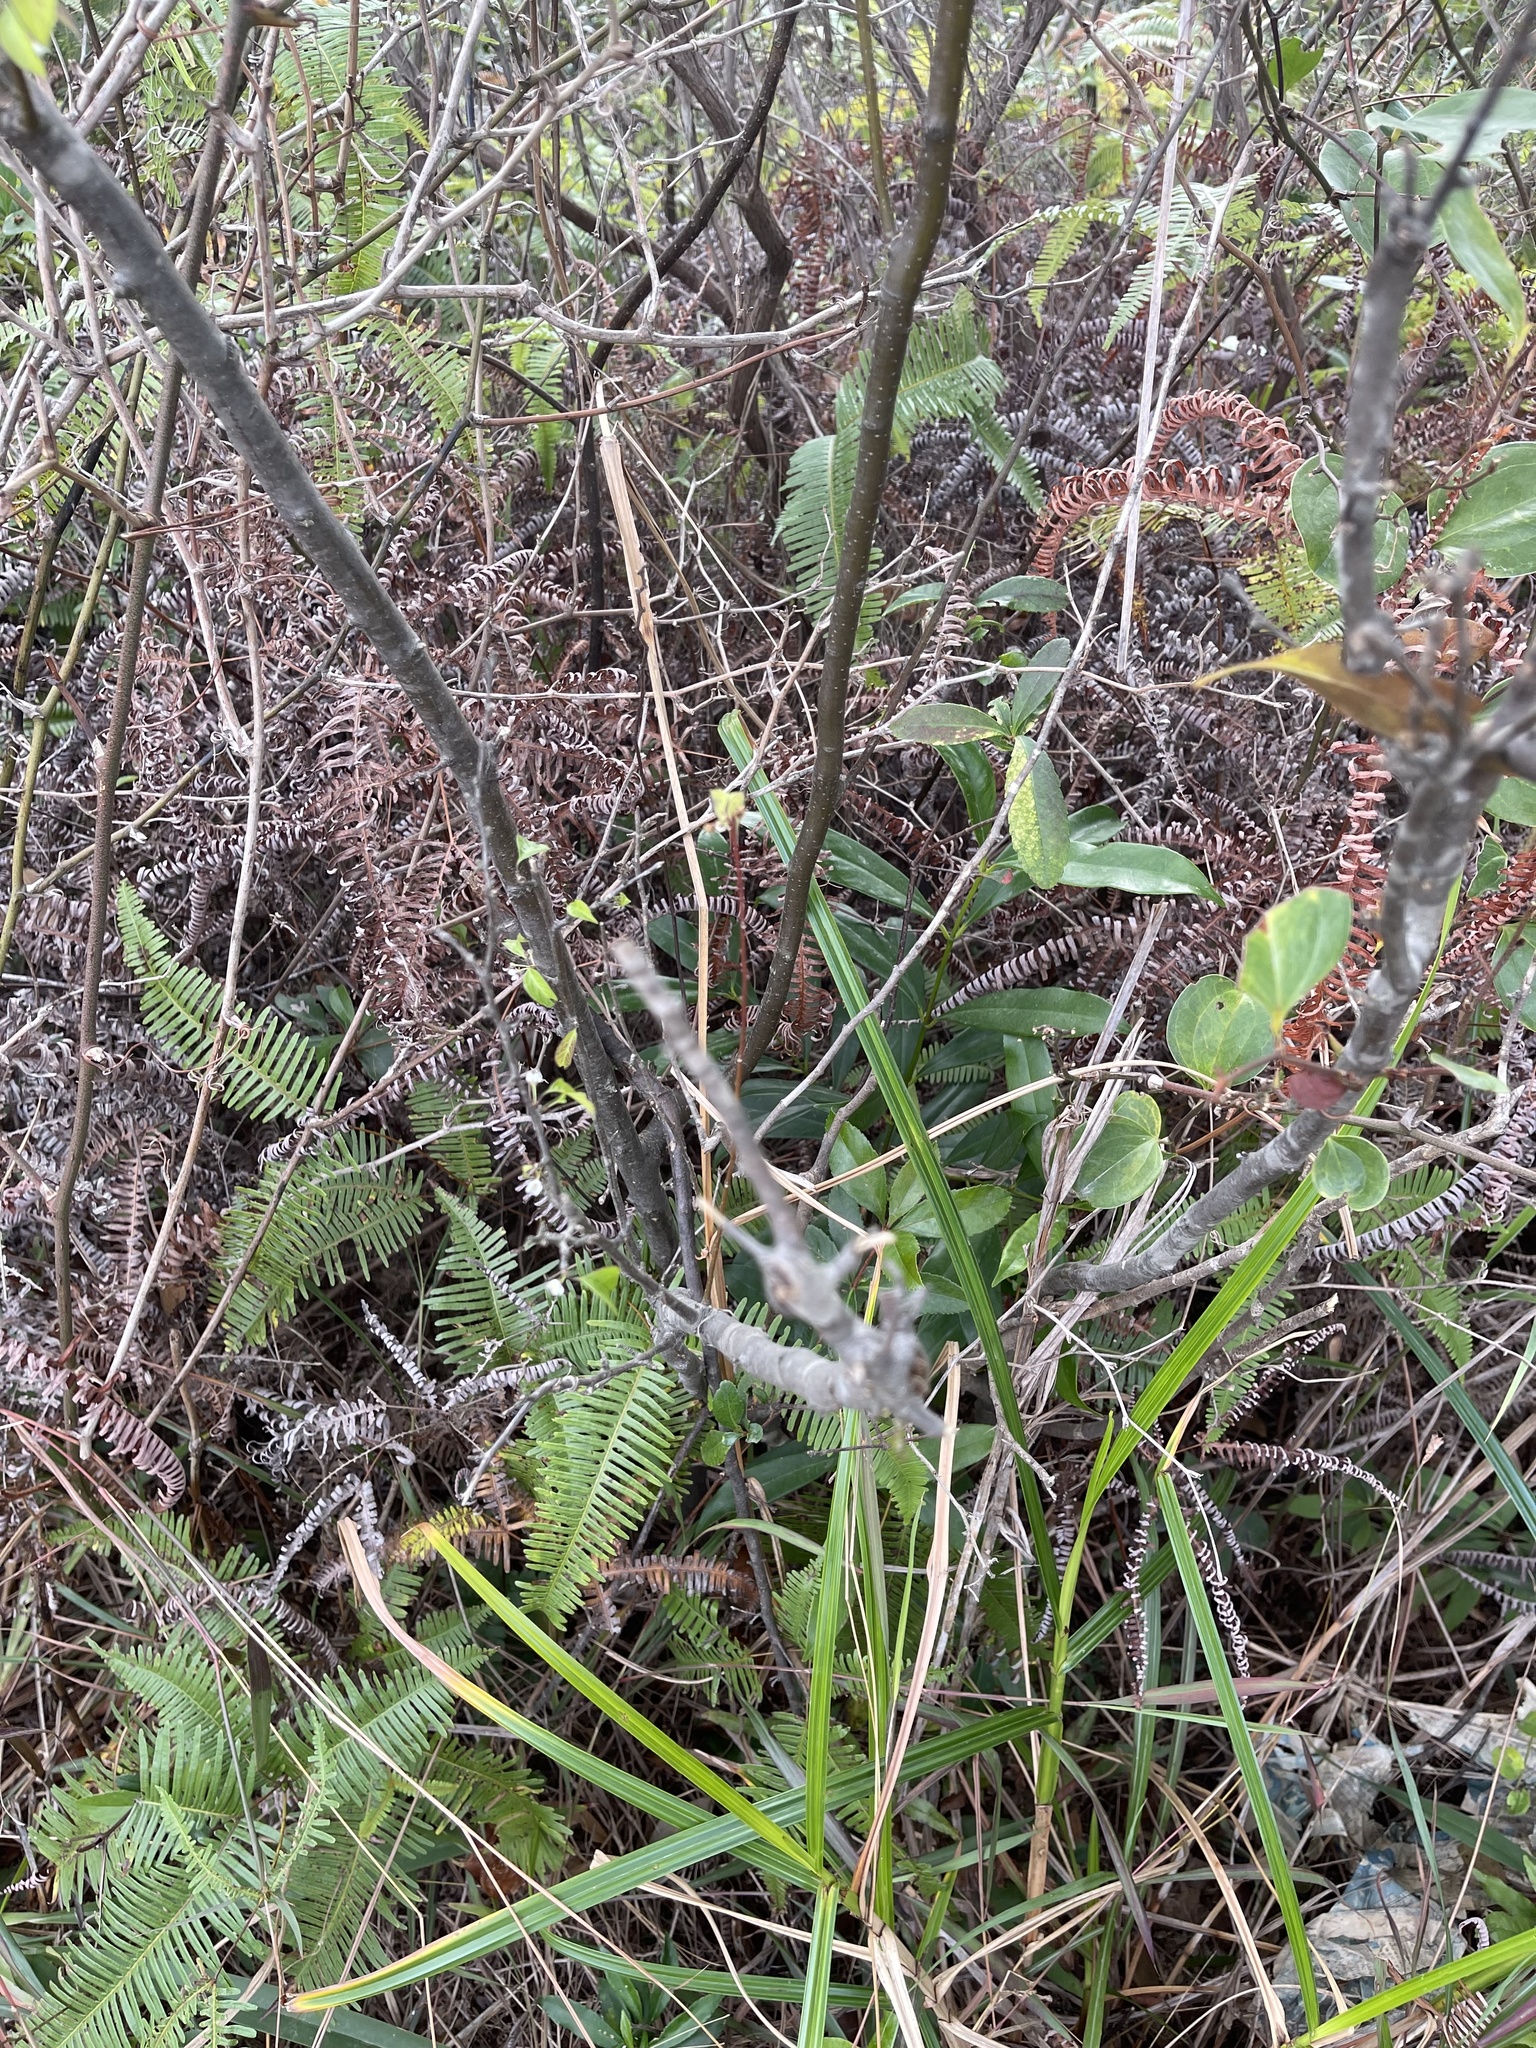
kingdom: Plantae
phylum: Tracheophyta
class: Magnoliopsida
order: Aquifoliales
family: Aquifoliaceae
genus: Ilex
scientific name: Ilex asprella
